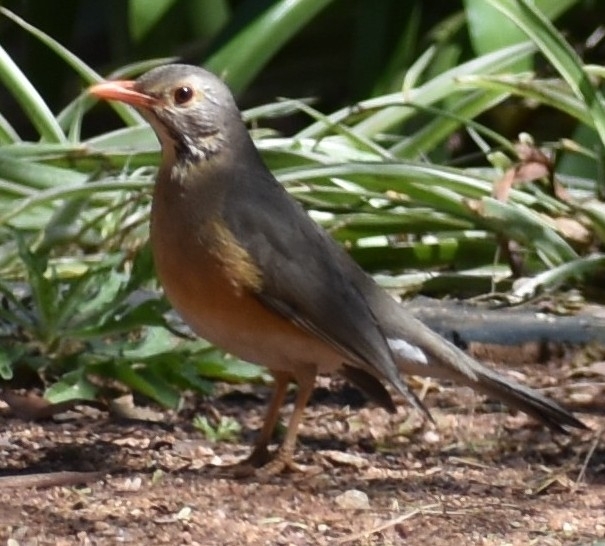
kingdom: Animalia
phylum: Chordata
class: Aves
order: Passeriformes
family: Turdidae
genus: Turdus
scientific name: Turdus libonyana
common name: Kurrichane thrush
